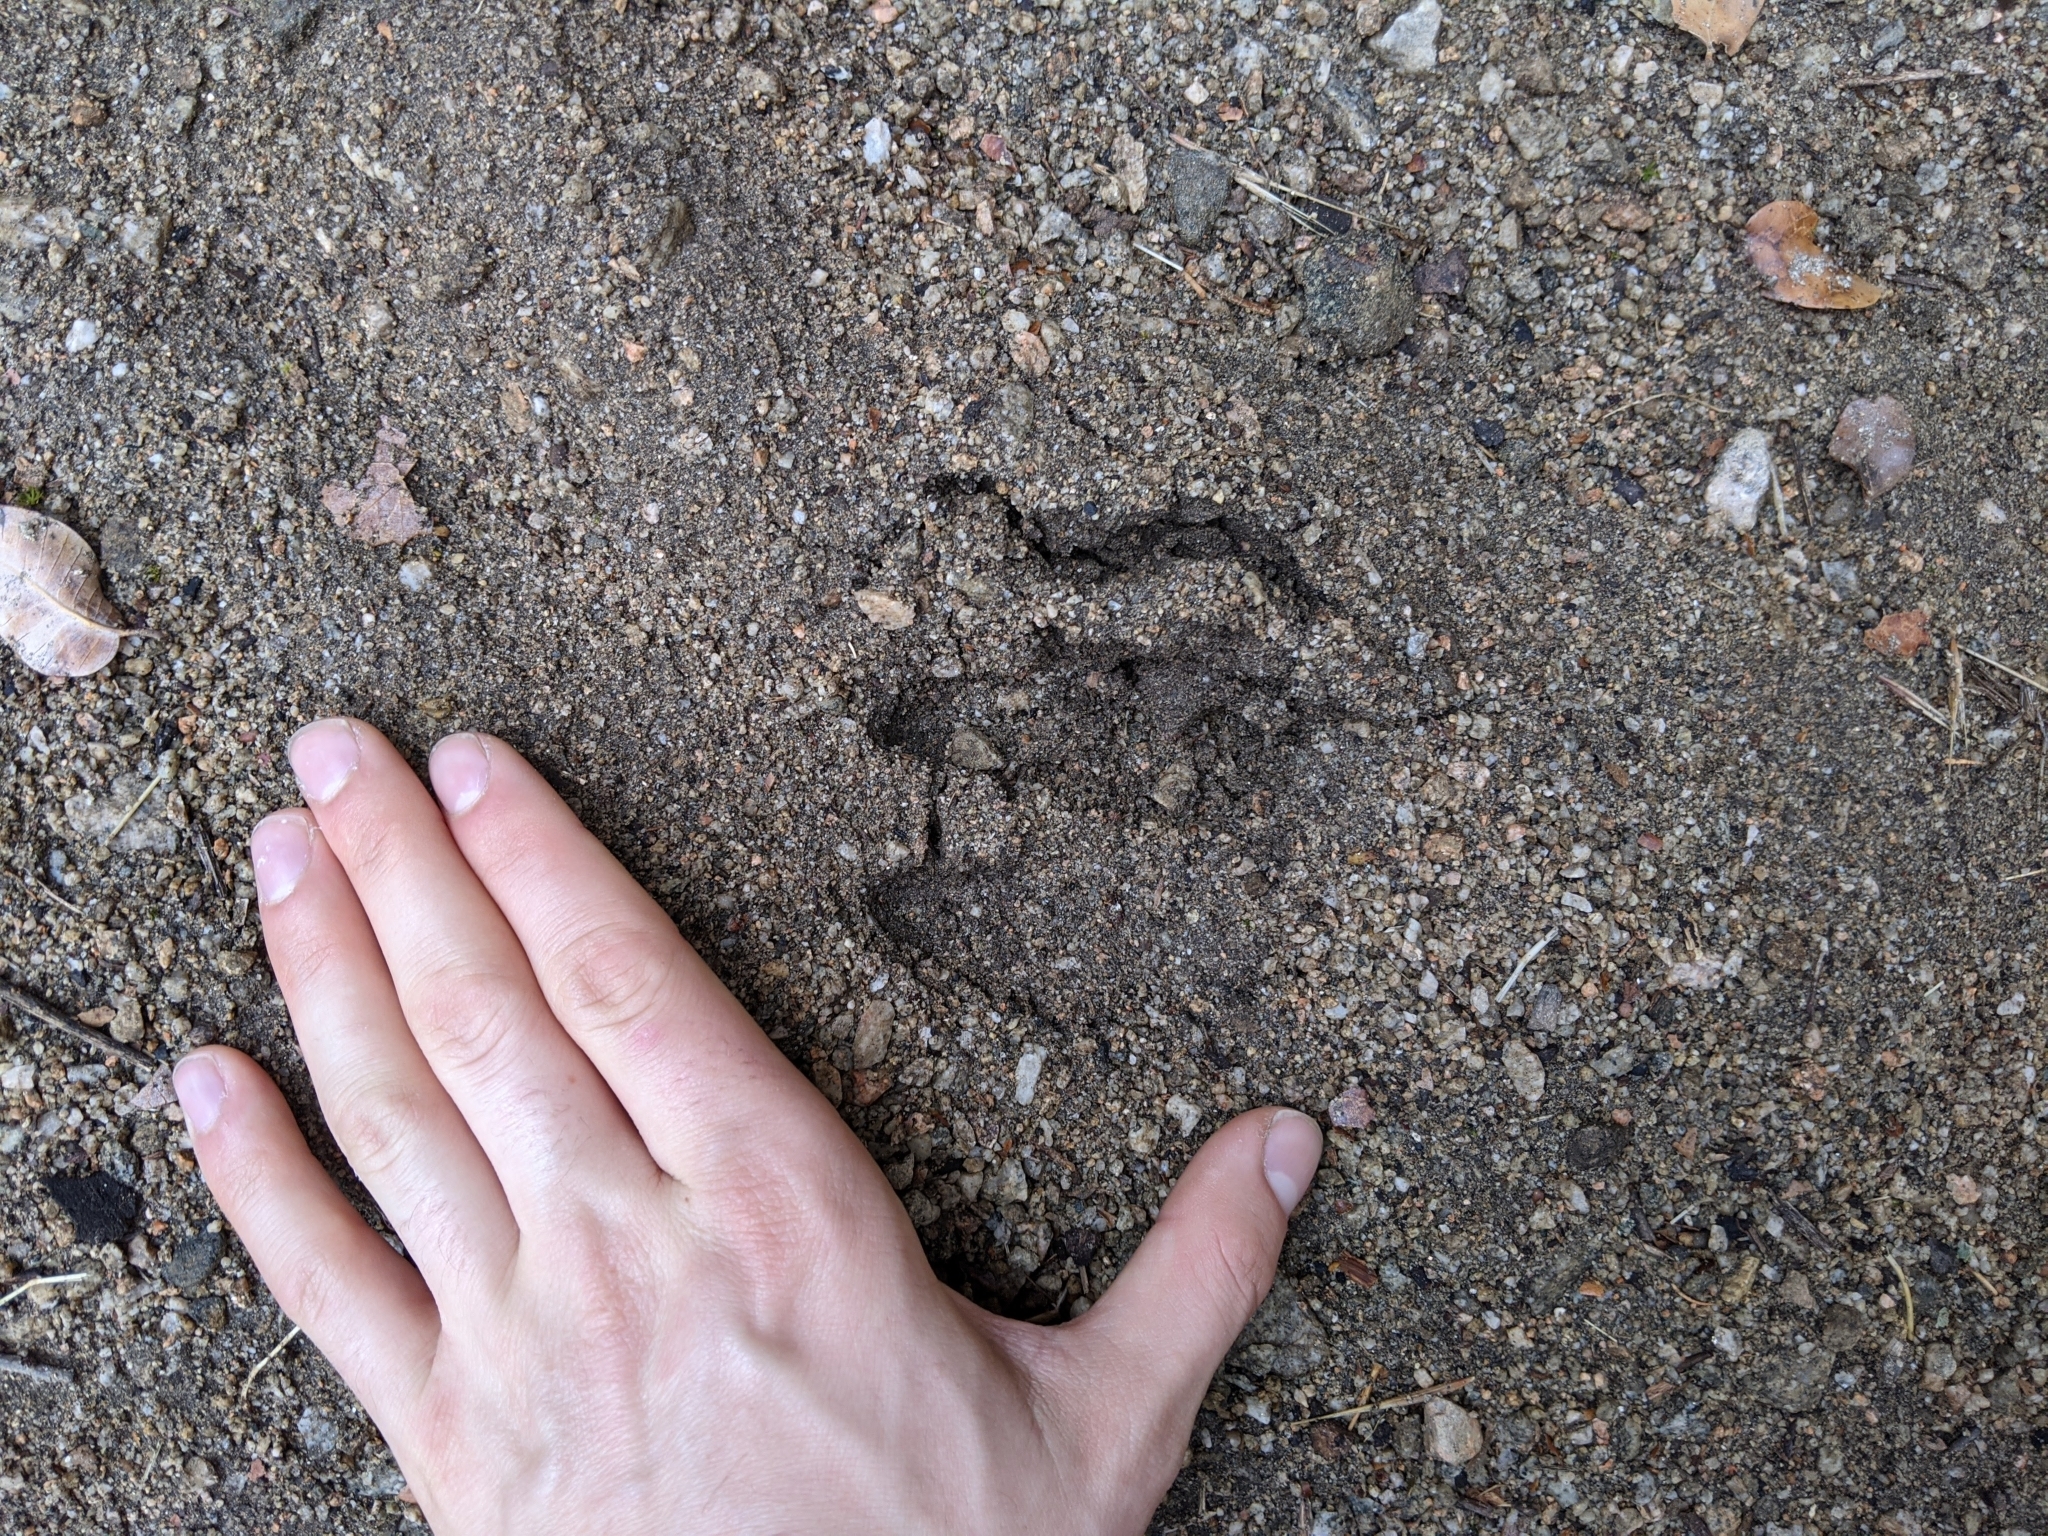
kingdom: Animalia
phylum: Chordata
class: Mammalia
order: Artiodactyla
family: Cervidae
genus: Odocoileus
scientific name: Odocoileus hemionus
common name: Mule deer
